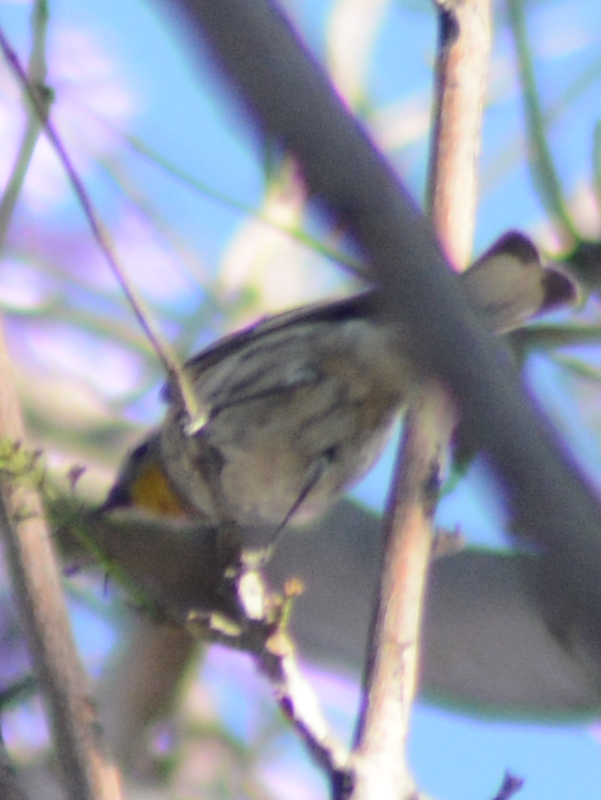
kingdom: Animalia
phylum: Chordata
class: Aves
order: Passeriformes
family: Parulidae
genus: Setophaga
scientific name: Setophaga coronata
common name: Myrtle warbler
